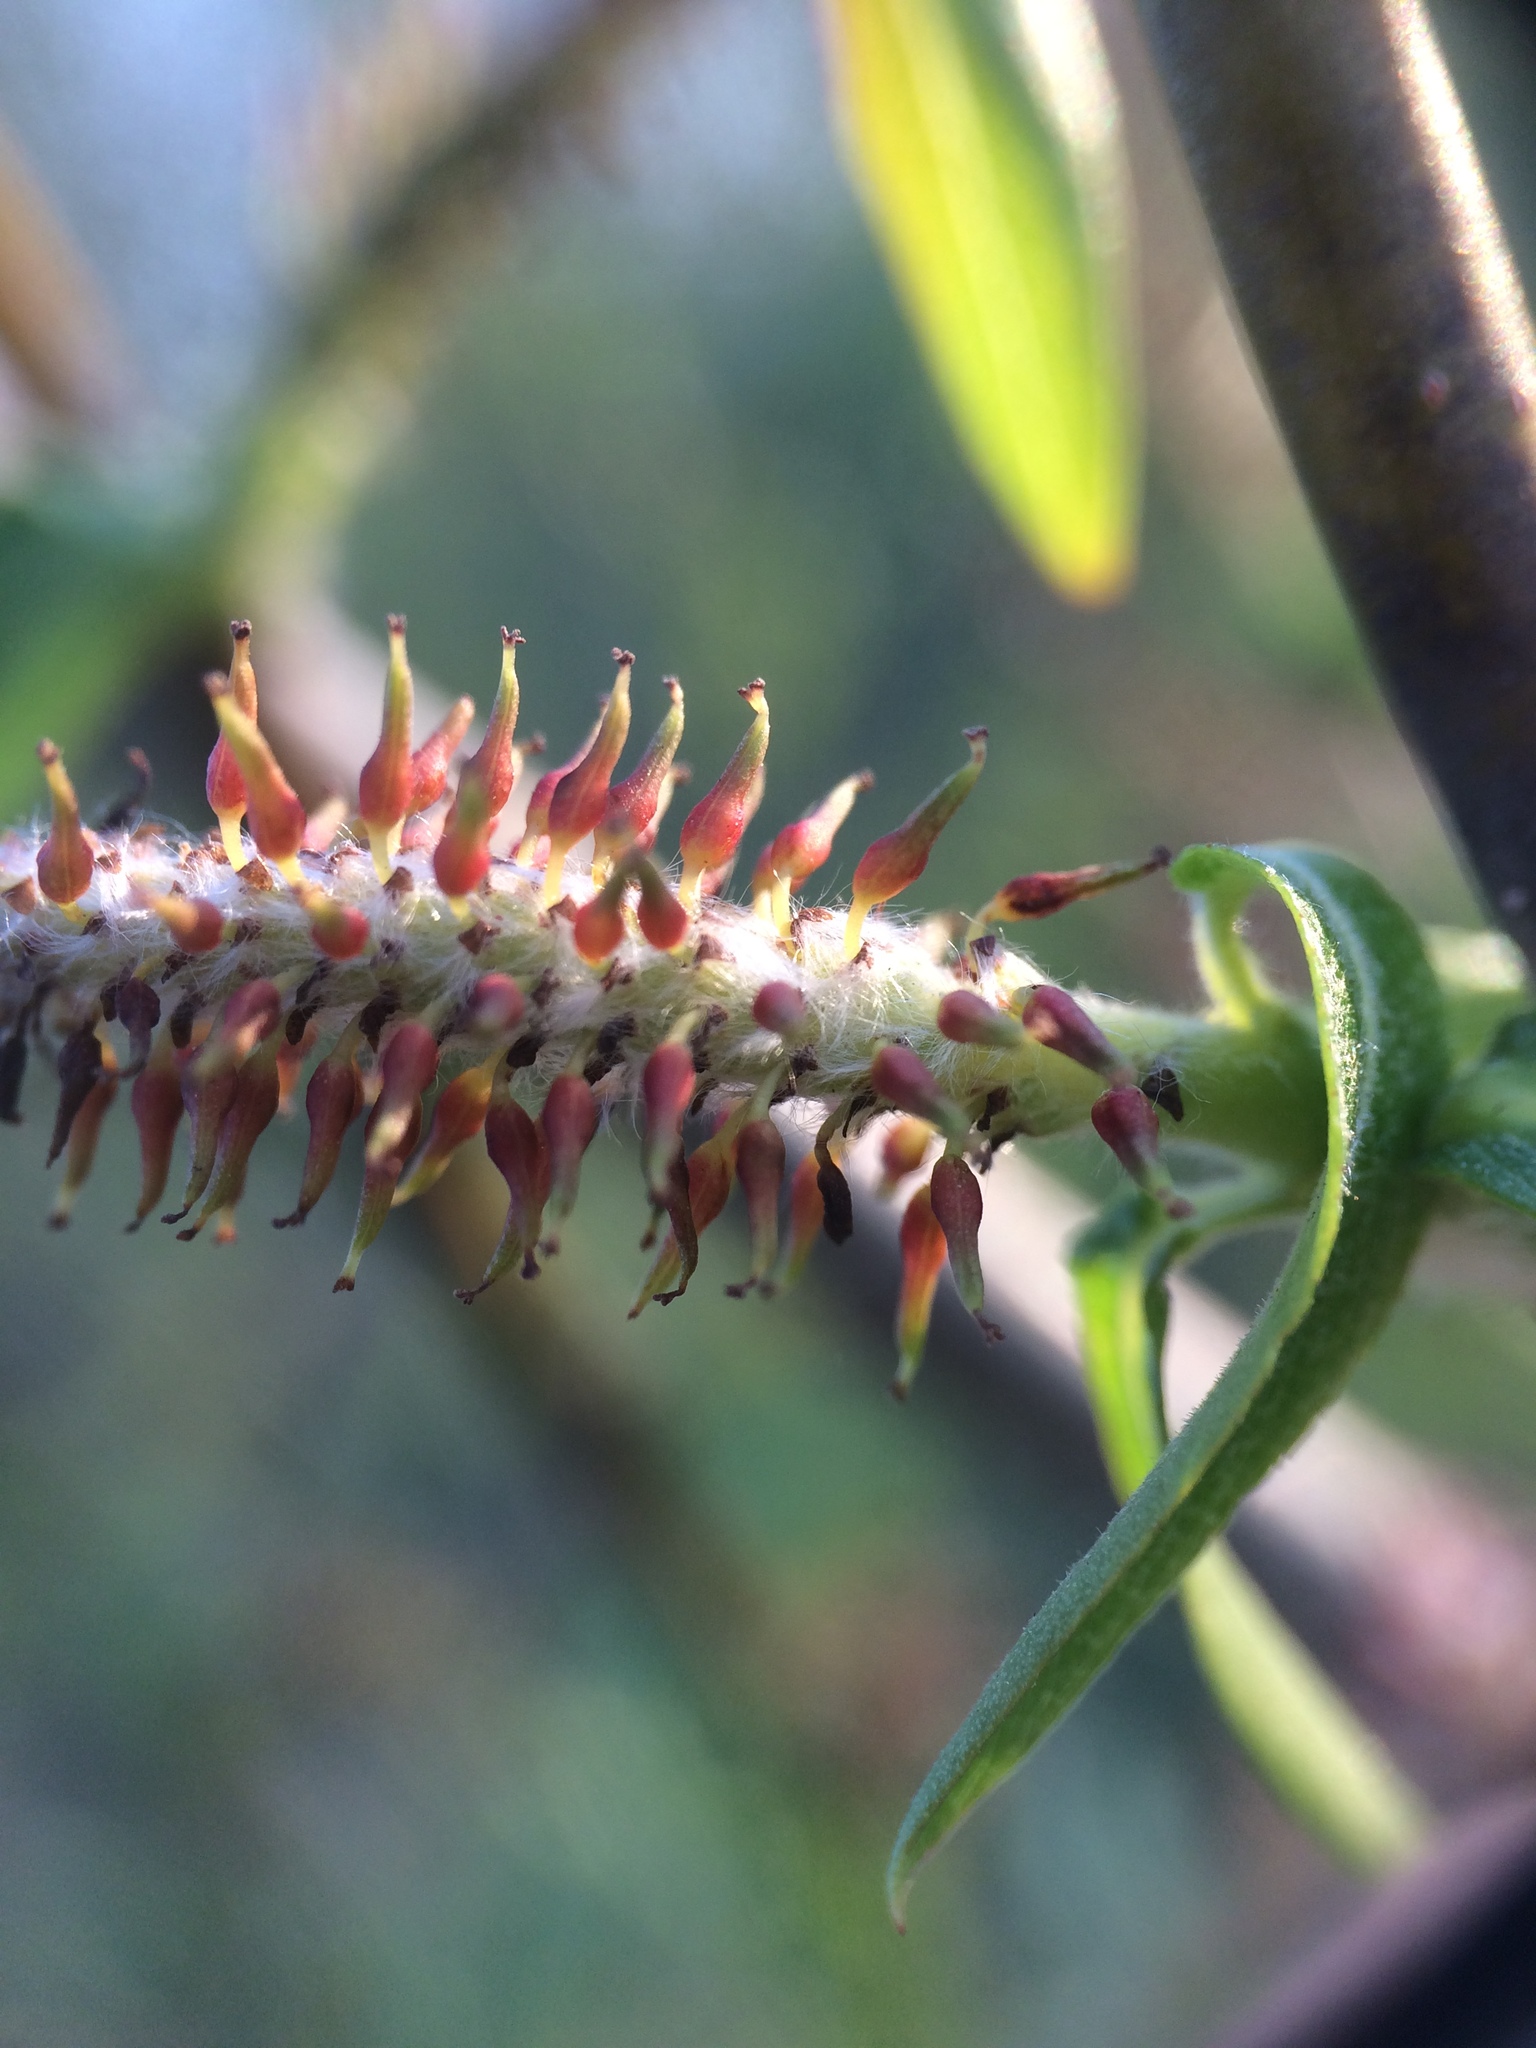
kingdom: Plantae
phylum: Tracheophyta
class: Magnoliopsida
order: Malpighiales
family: Salicaceae
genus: Salix
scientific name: Salix eriocephala
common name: Heart-leaved willow
